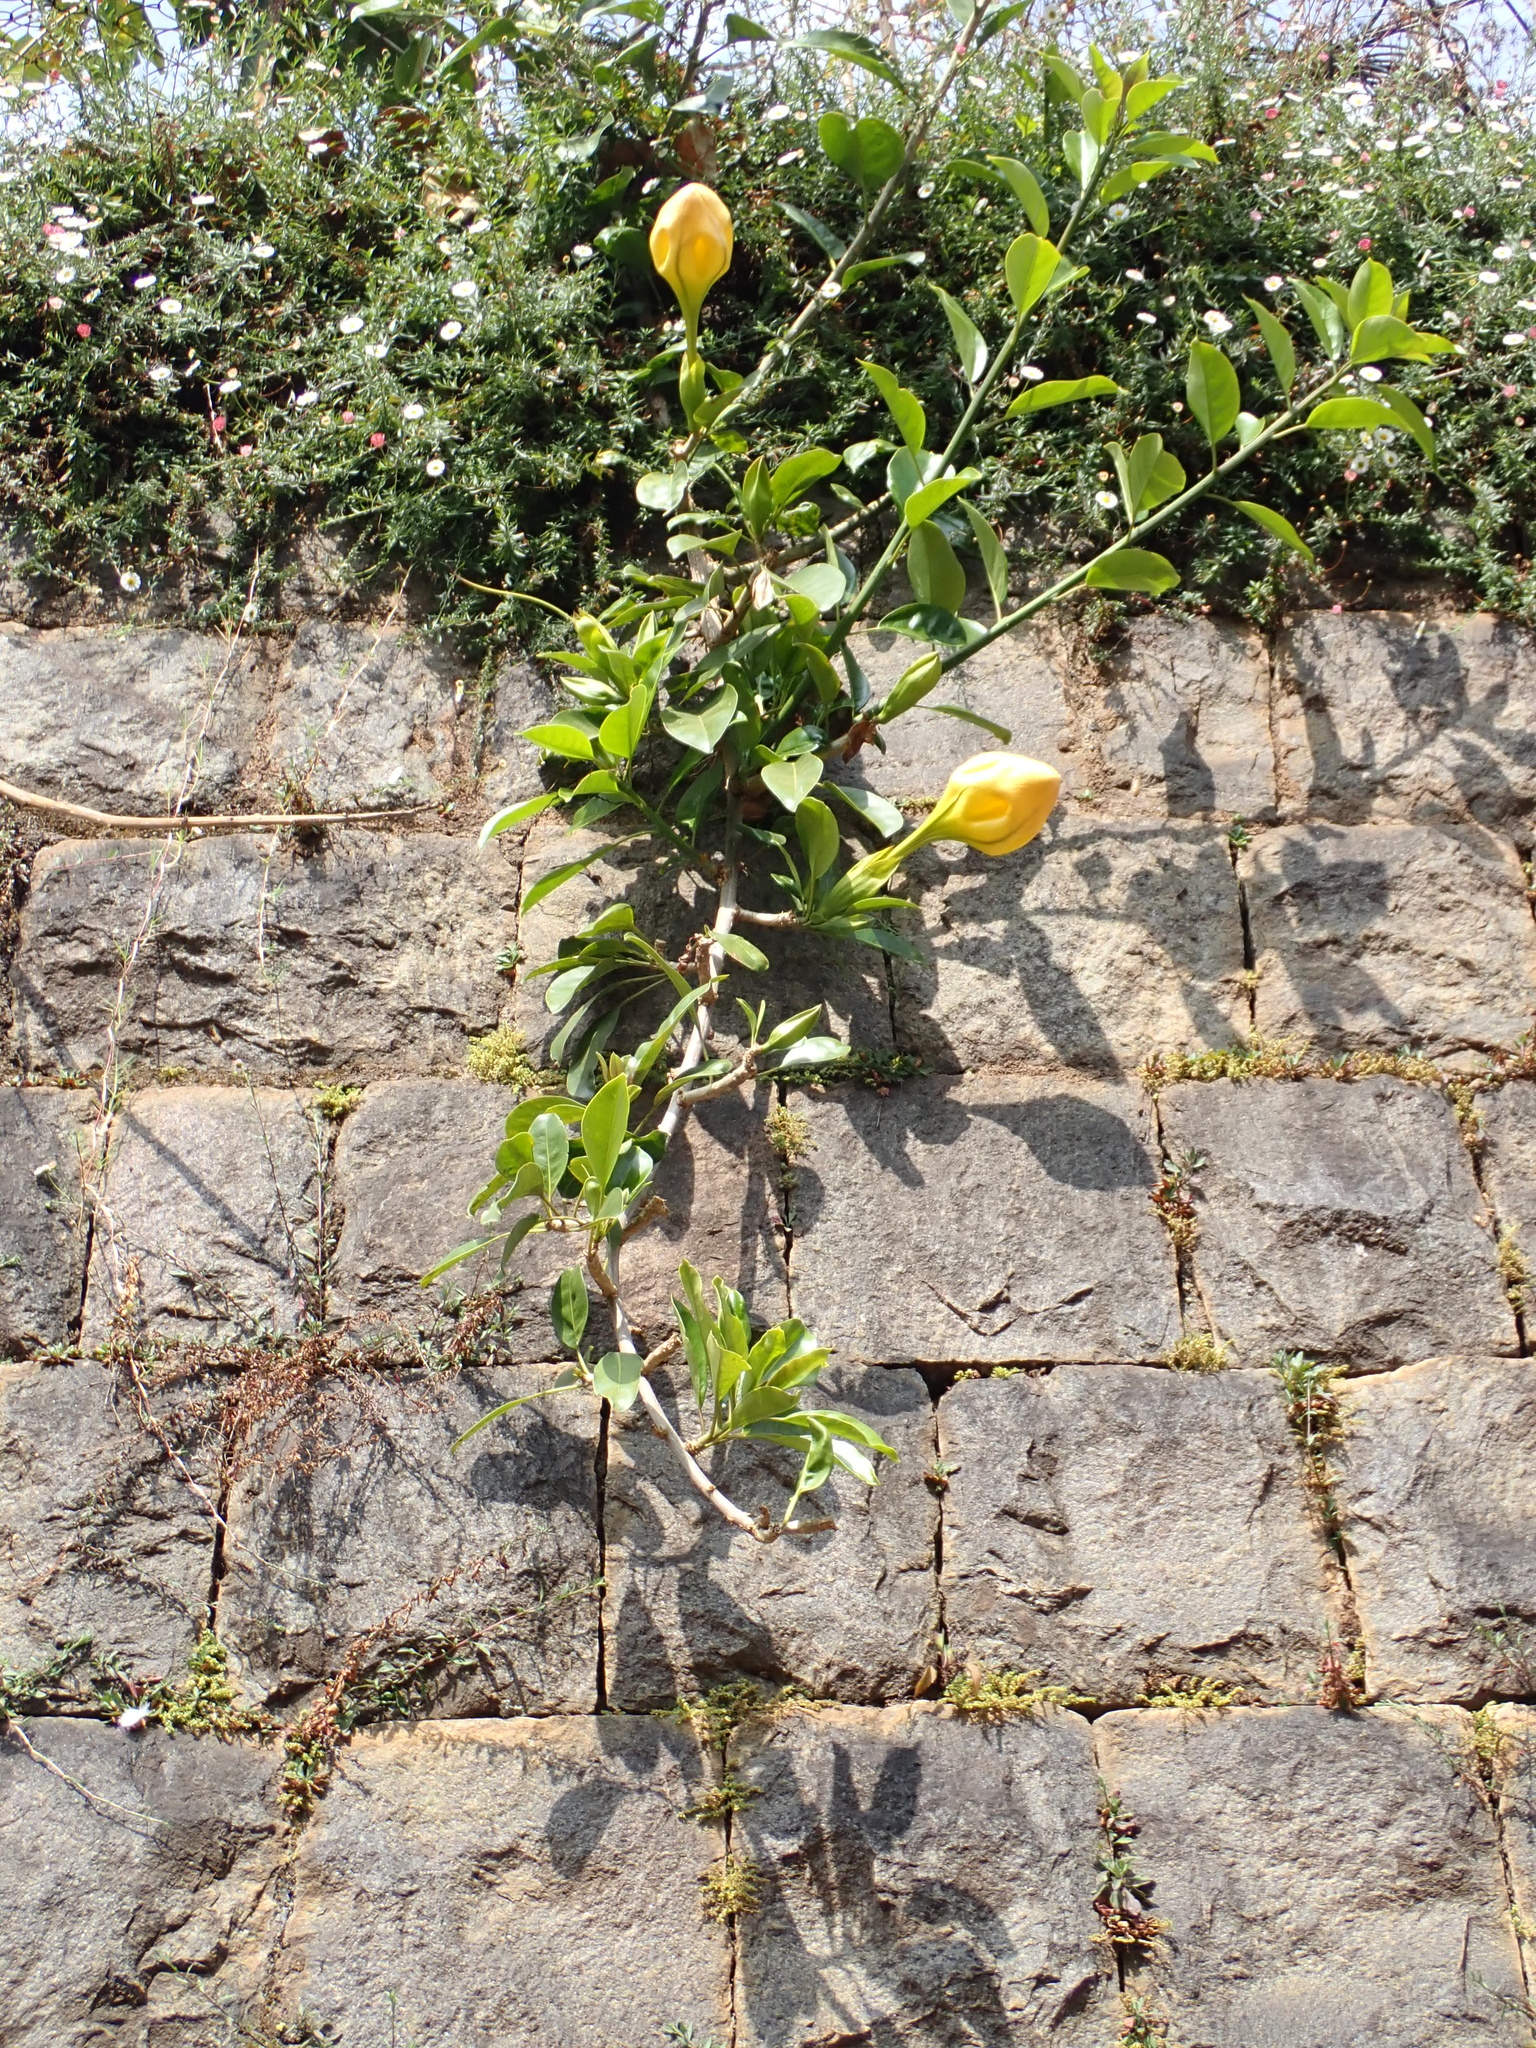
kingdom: Plantae
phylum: Tracheophyta
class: Magnoliopsida
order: Solanales
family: Solanaceae
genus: Solandra
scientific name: Solandra maxima
